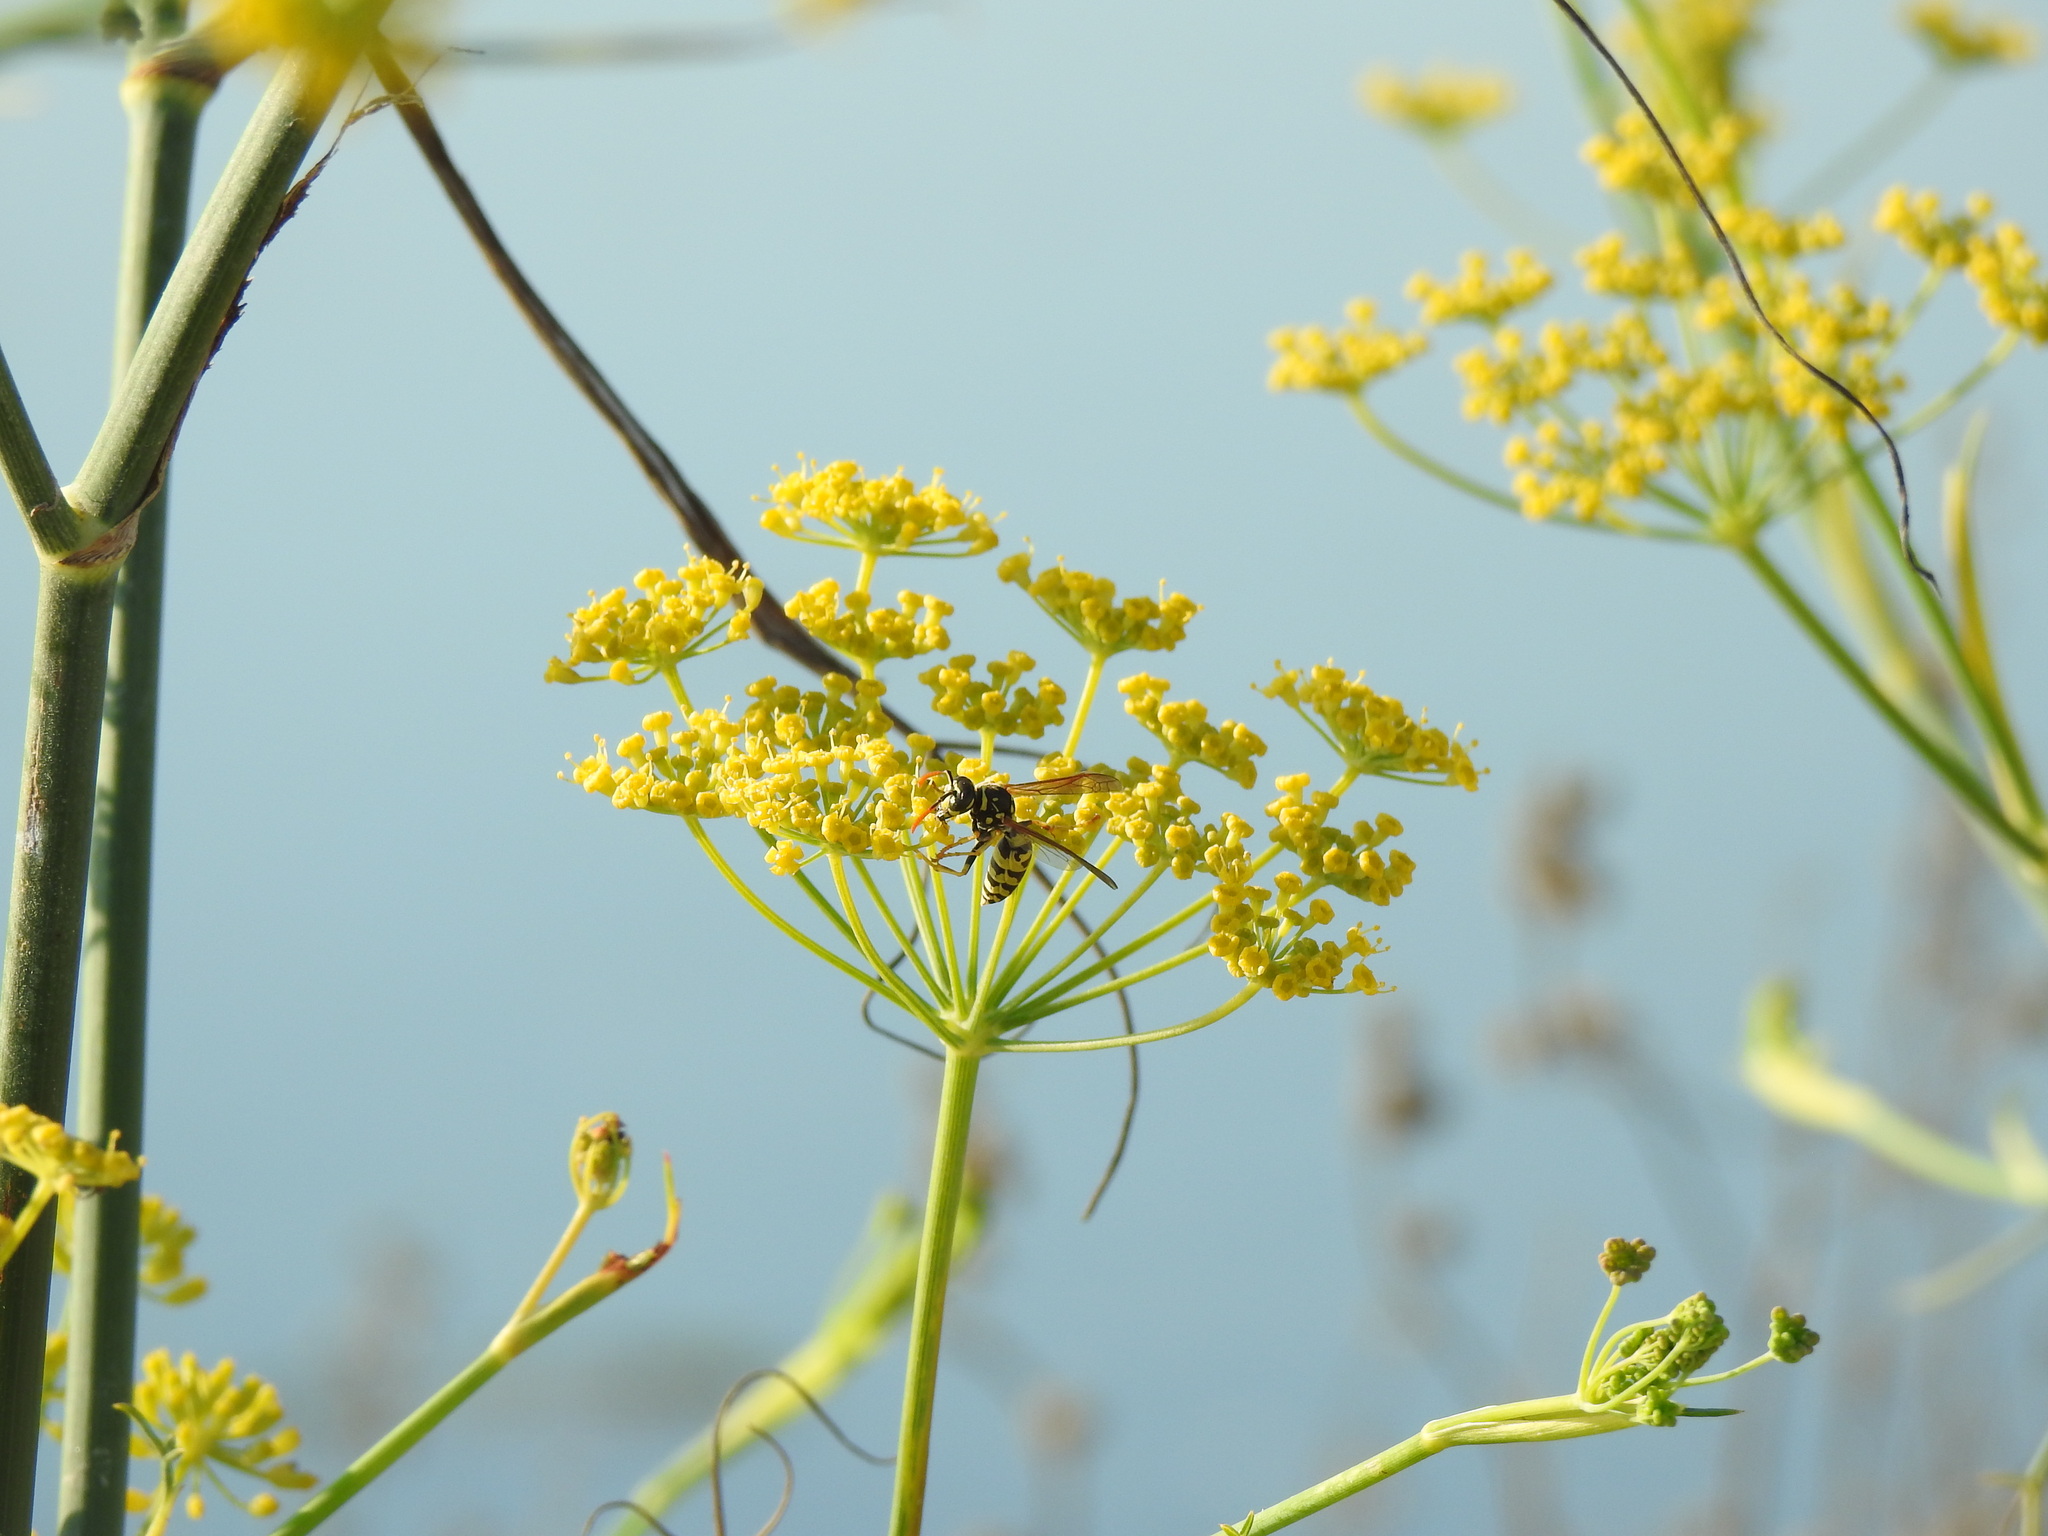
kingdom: Plantae
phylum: Tracheophyta
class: Magnoliopsida
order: Apiales
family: Apiaceae
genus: Foeniculum
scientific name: Foeniculum vulgare
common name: Fennel
